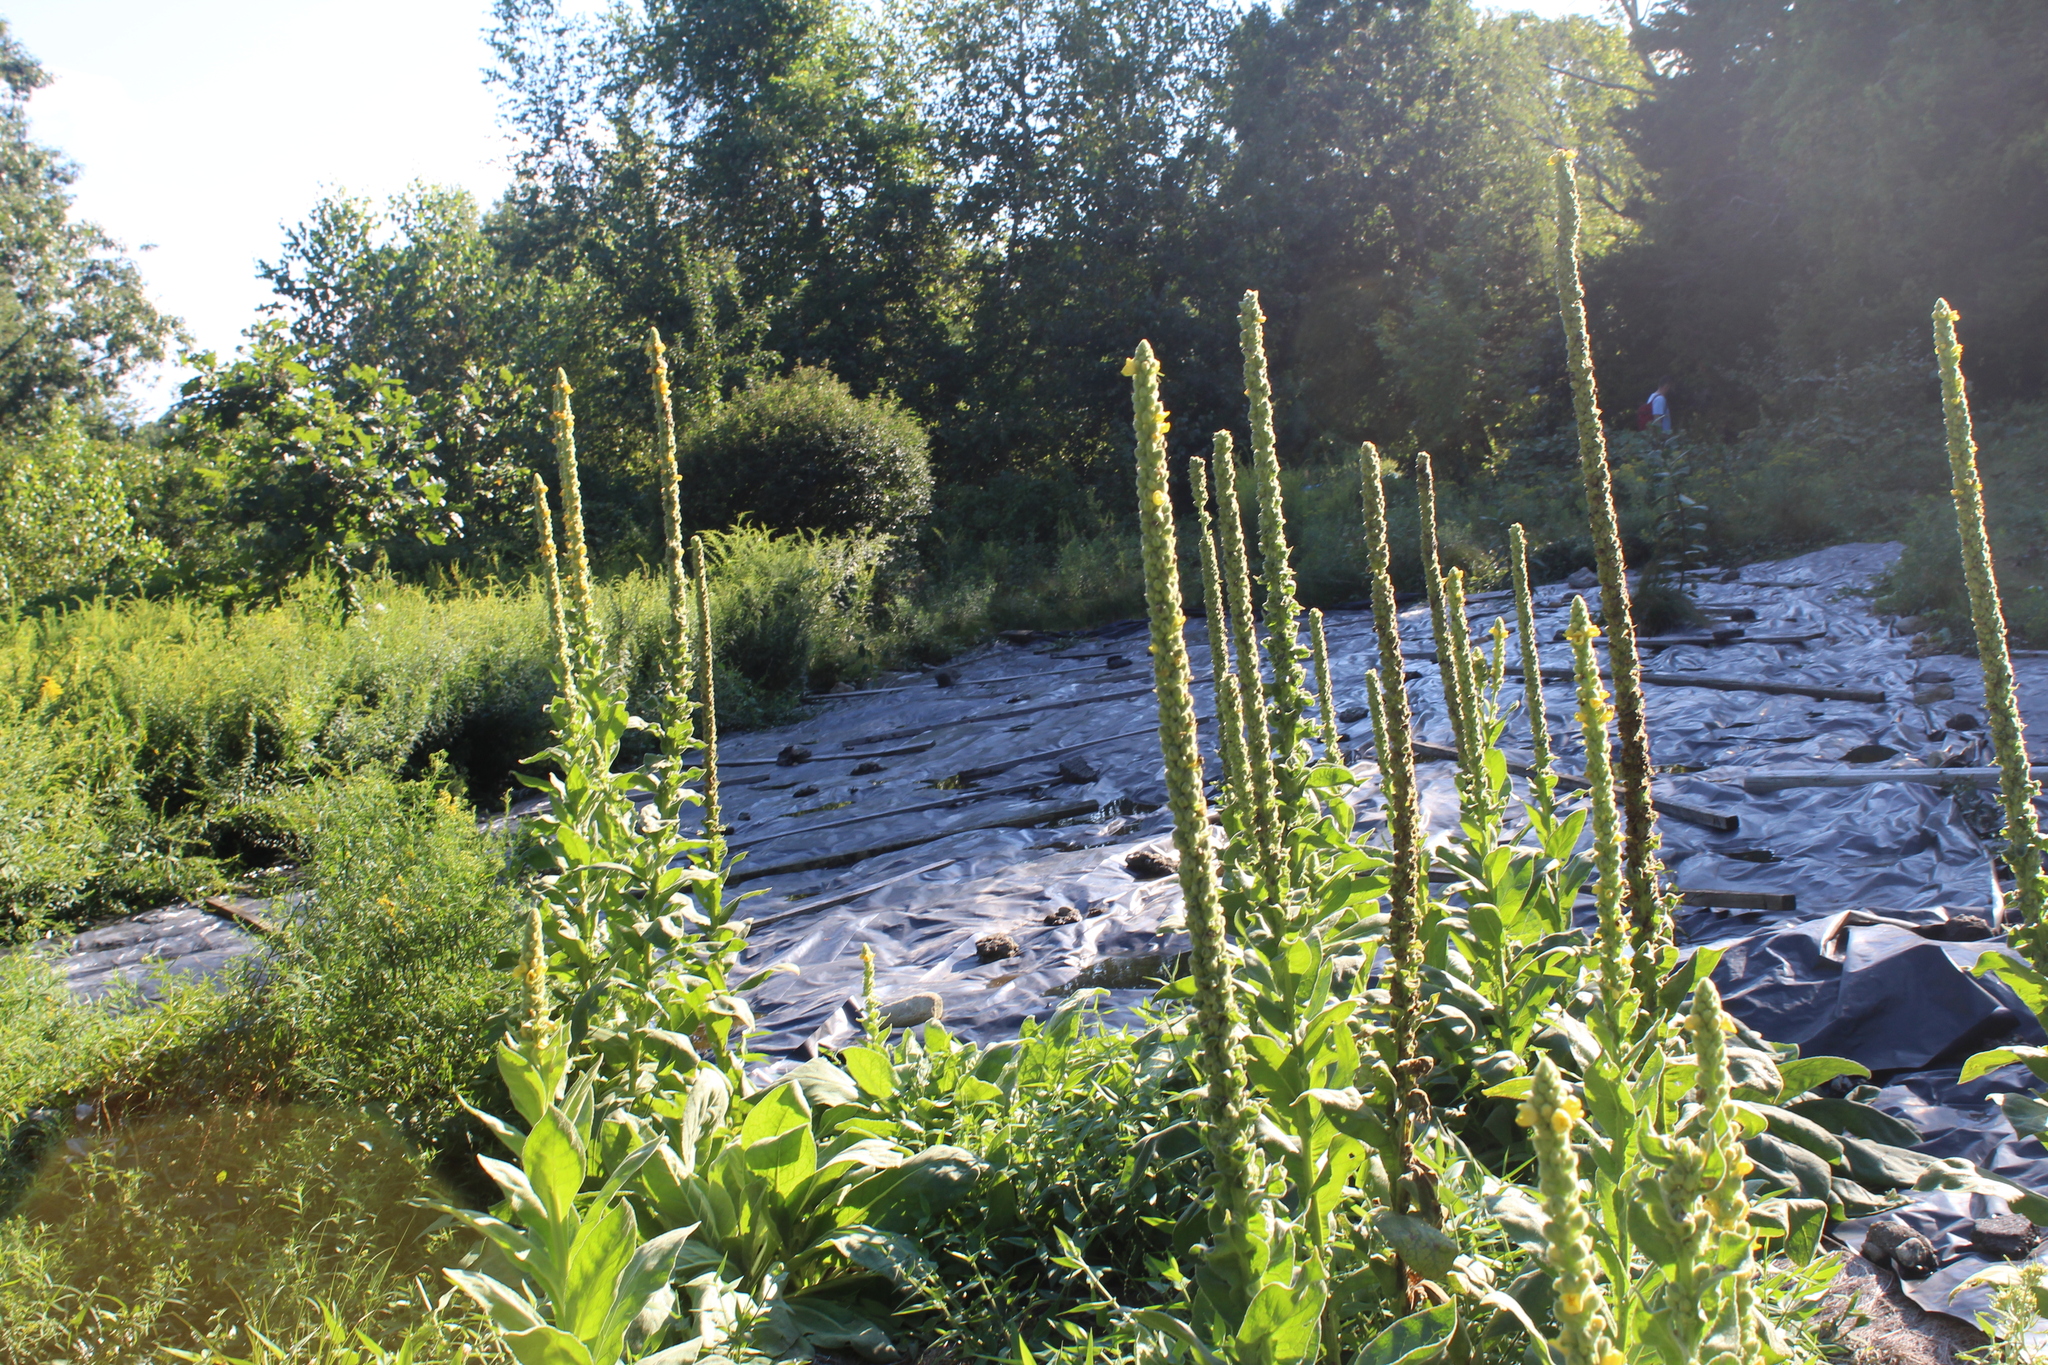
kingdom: Plantae
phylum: Tracheophyta
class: Magnoliopsida
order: Lamiales
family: Scrophulariaceae
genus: Verbascum
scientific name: Verbascum thapsus
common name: Common mullein
